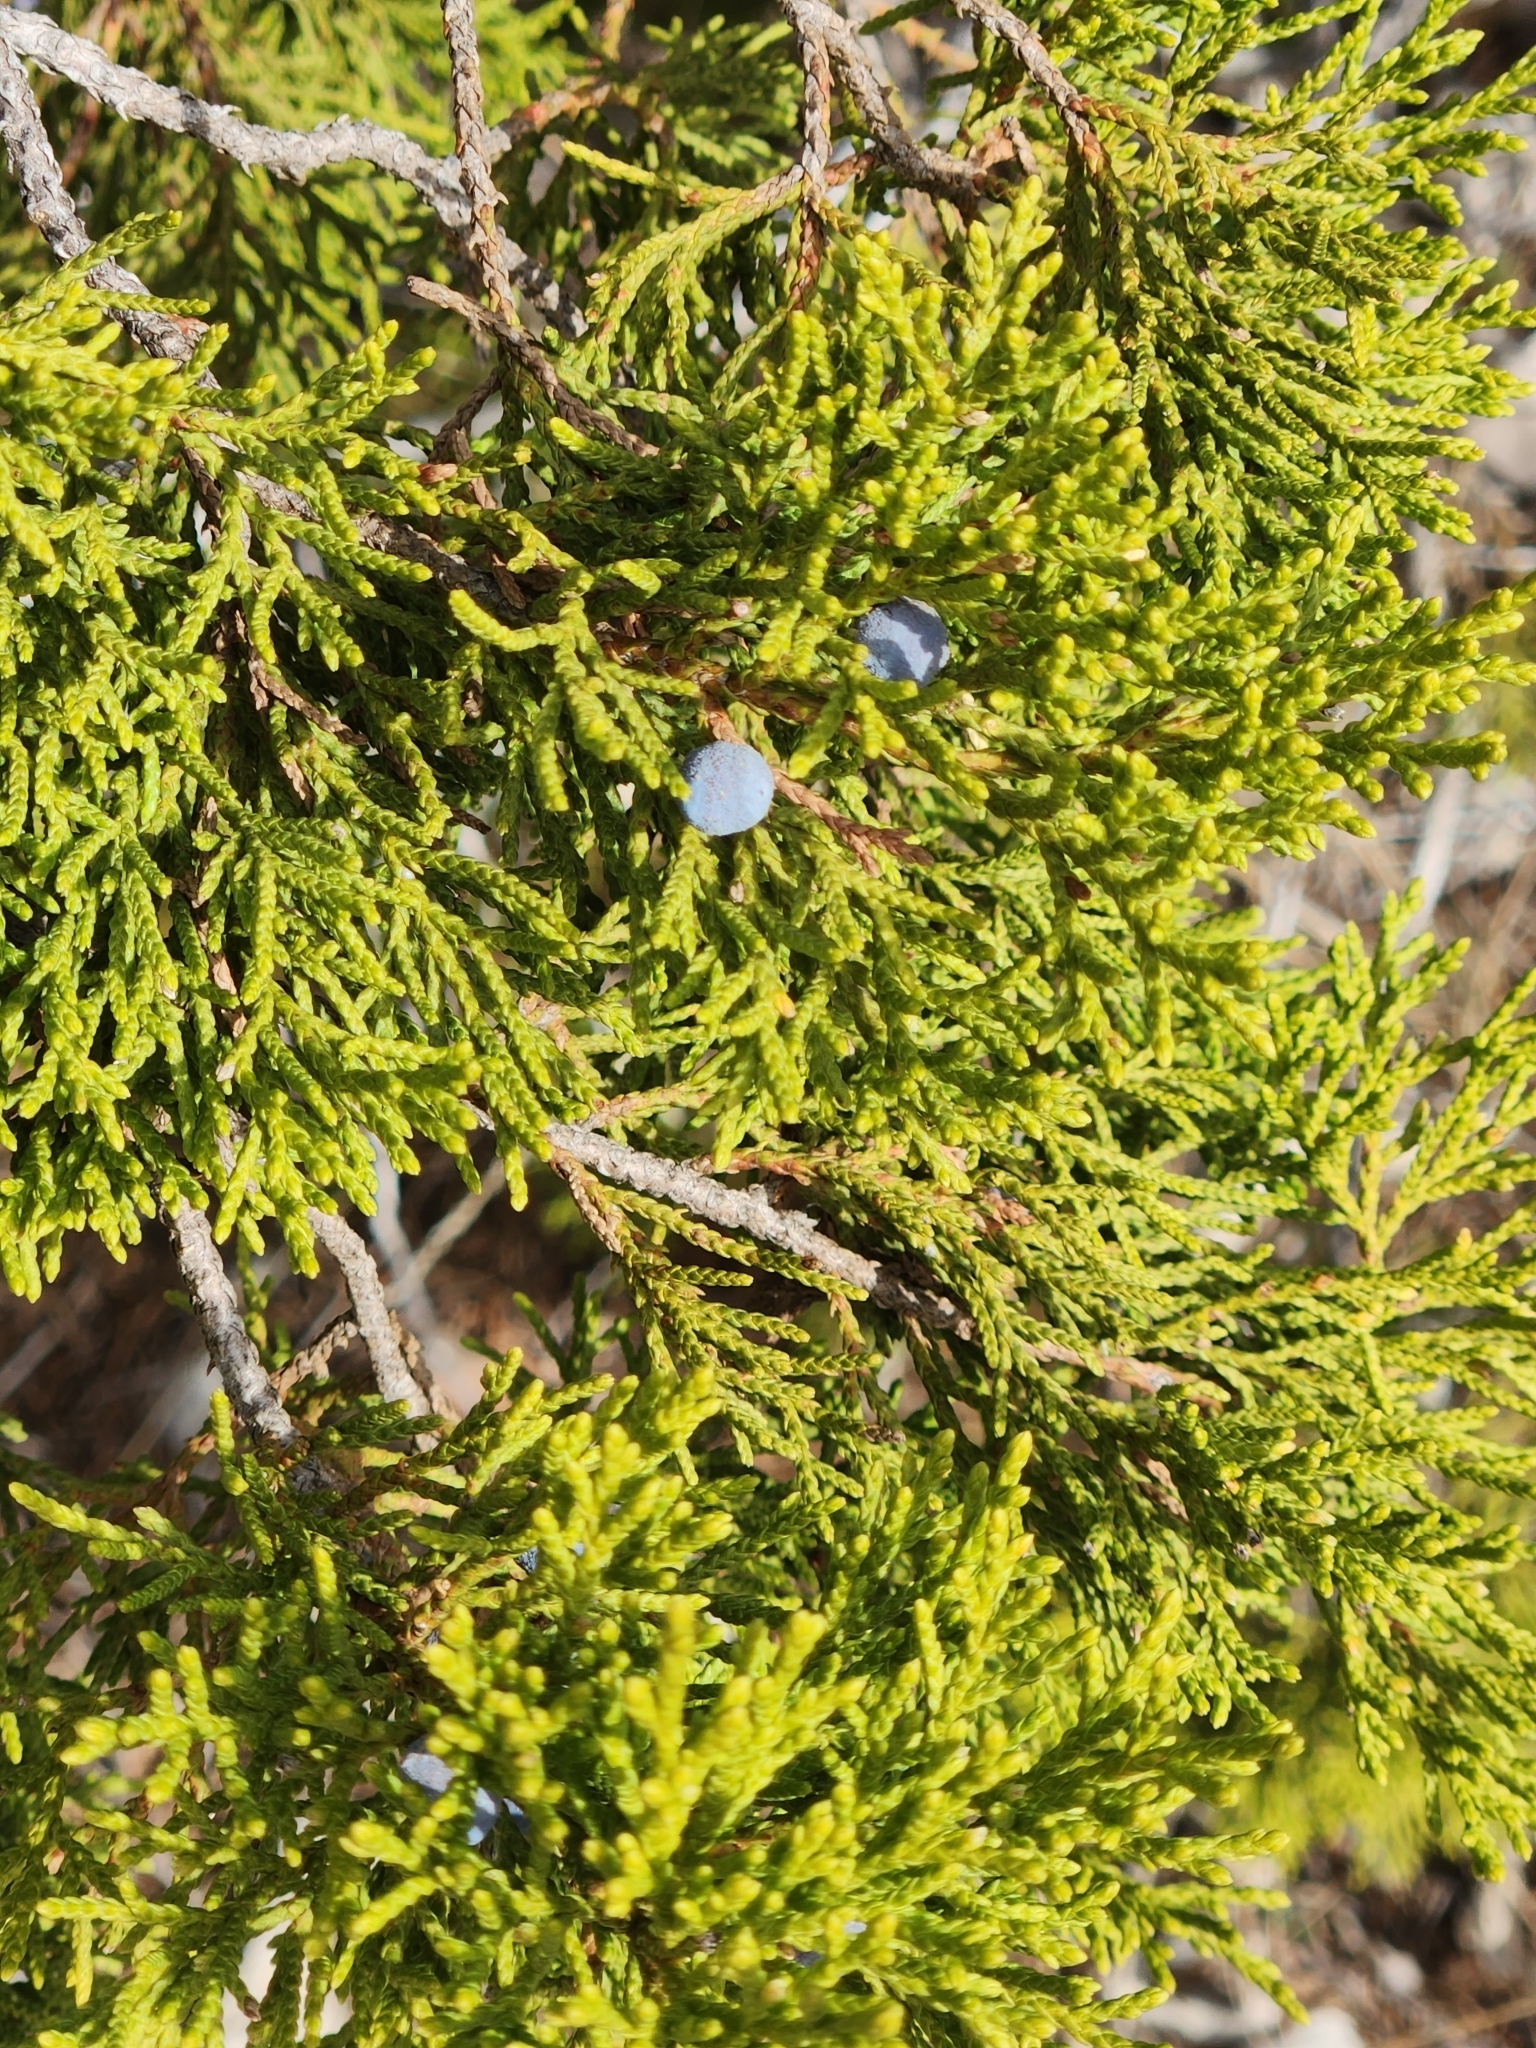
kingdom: Plantae
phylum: Tracheophyta
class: Pinopsida
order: Pinales
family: Cupressaceae
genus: Juniperus
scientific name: Juniperus ashei
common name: Mexican juniper
